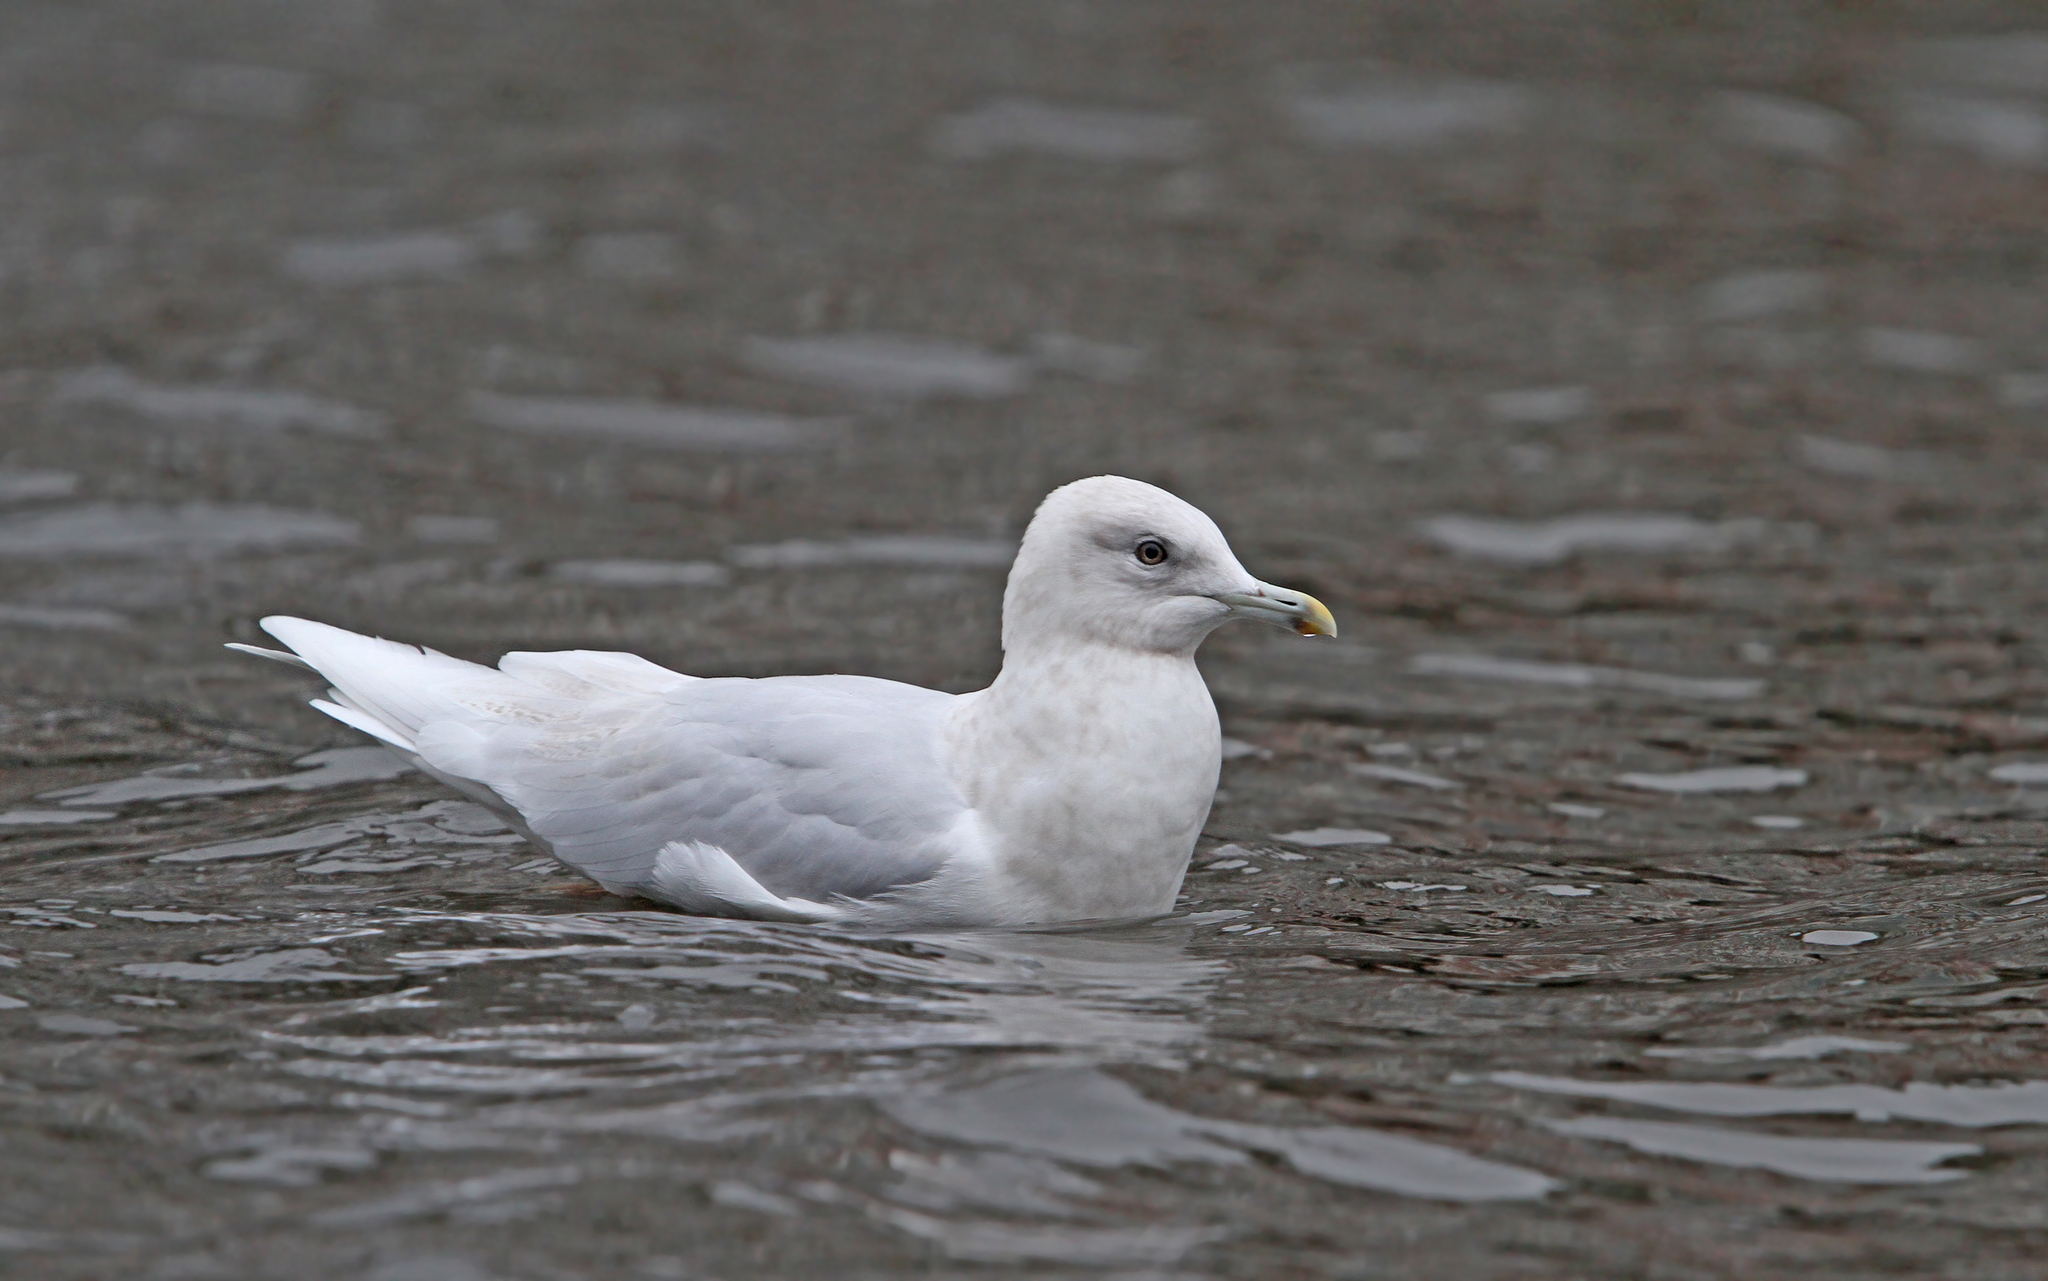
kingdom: Animalia
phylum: Chordata
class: Aves
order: Charadriiformes
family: Laridae
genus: Larus
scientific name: Larus glaucoides
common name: Iceland gull
